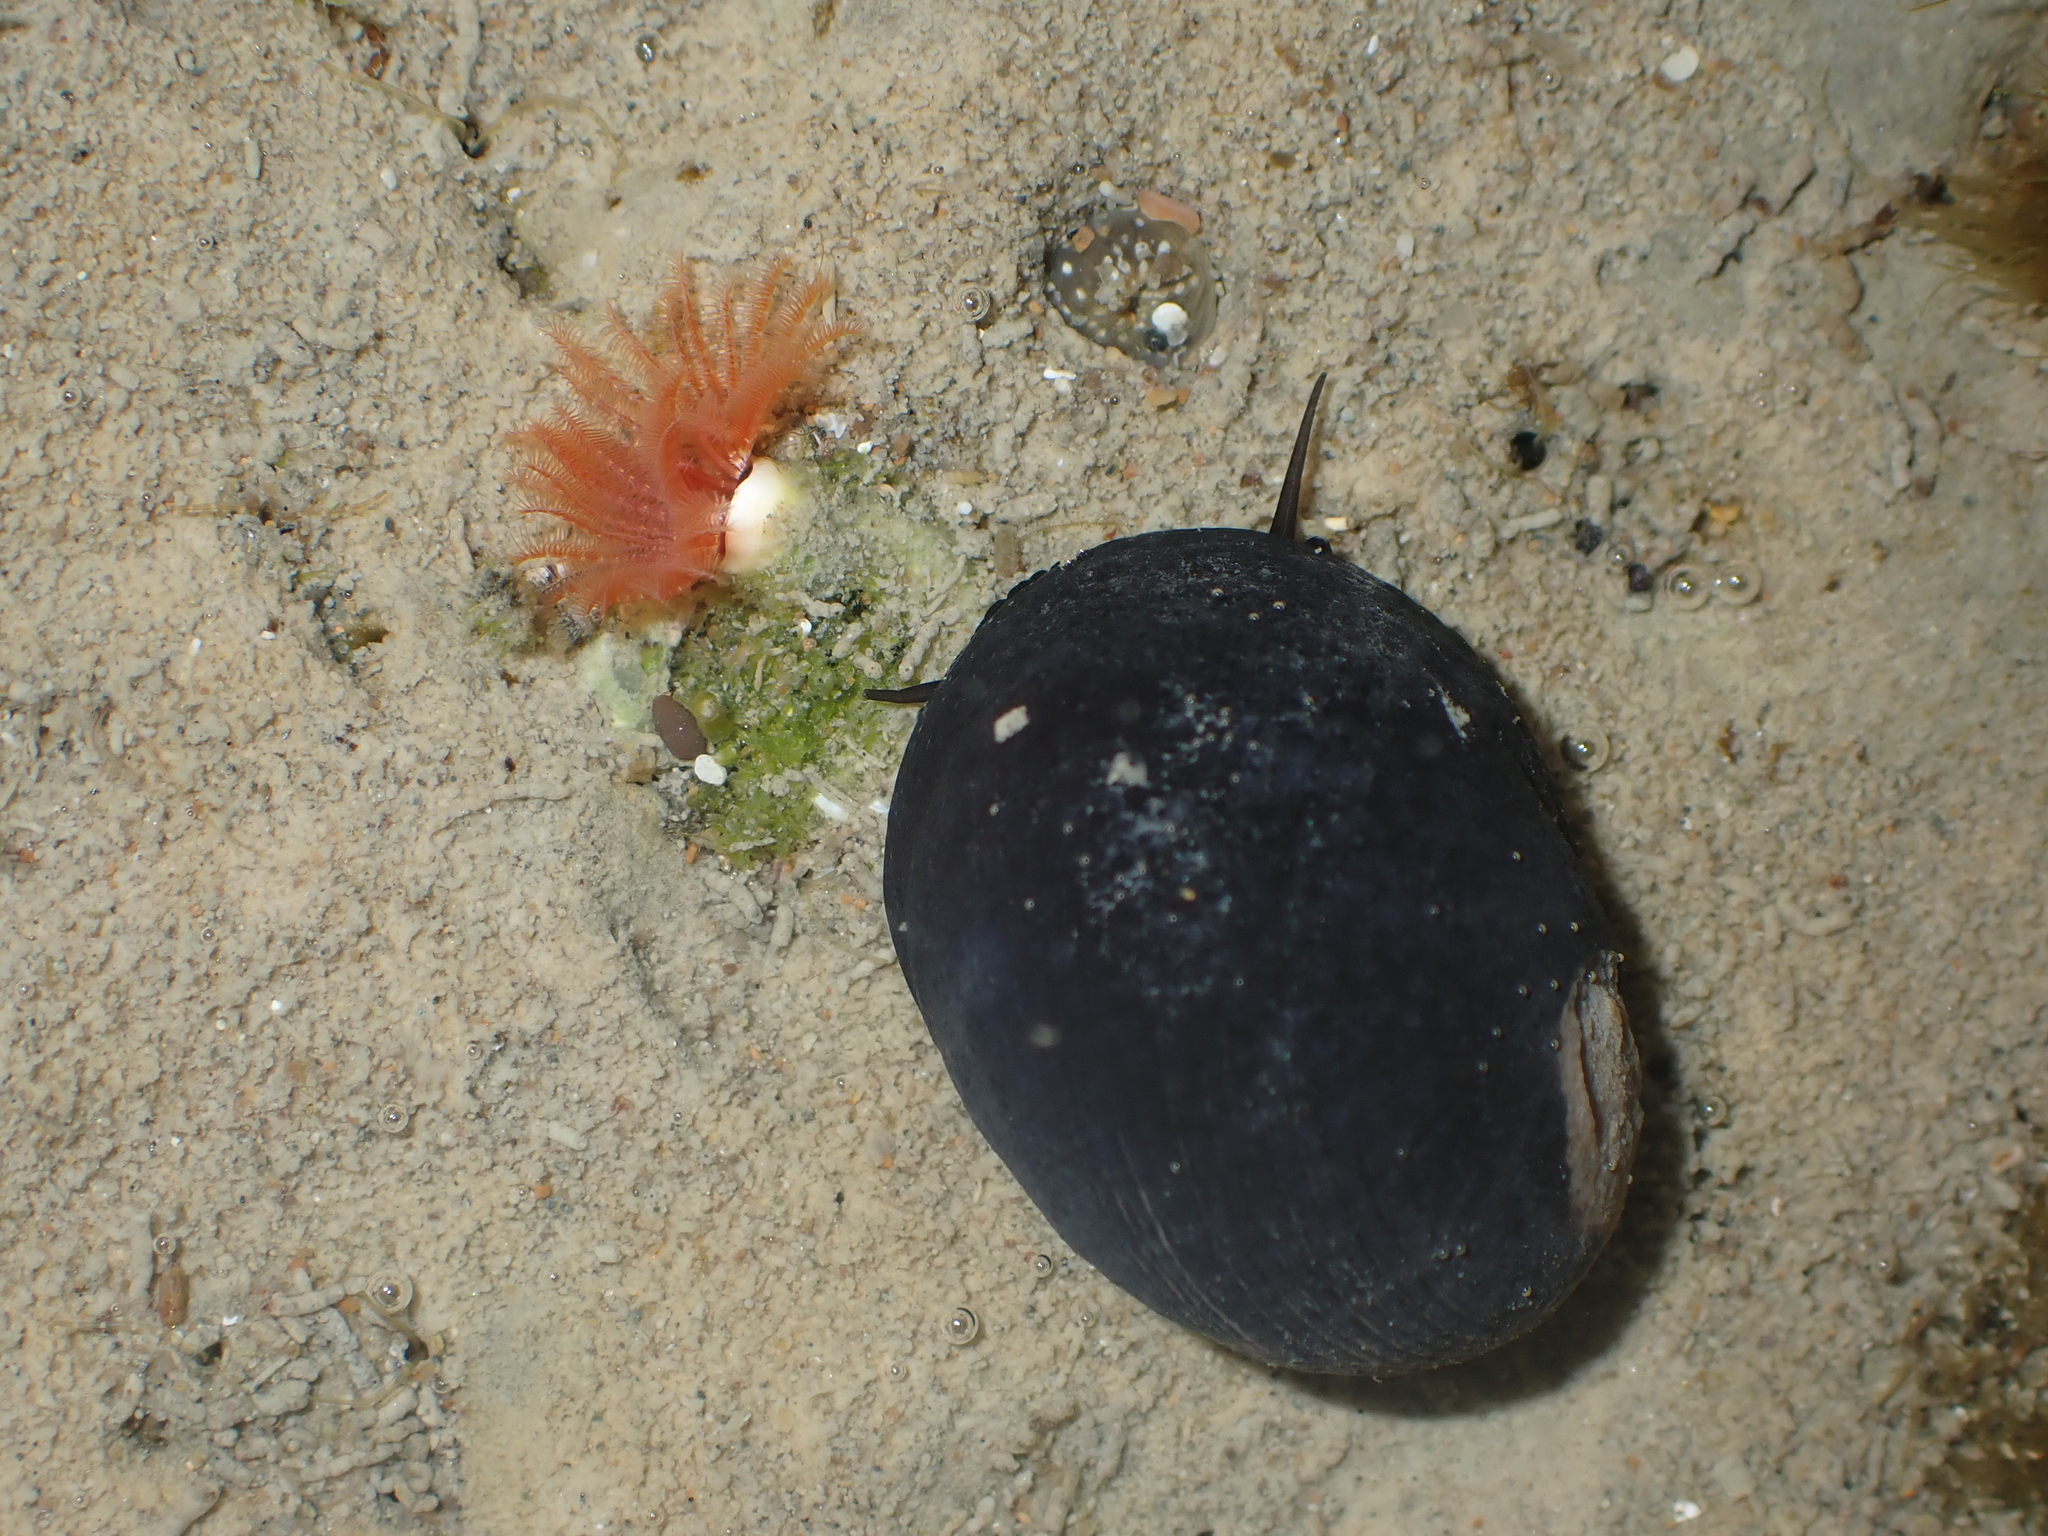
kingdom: Animalia
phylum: Mollusca
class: Gastropoda
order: Cycloneritida
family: Neritidae
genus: Nerita
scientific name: Nerita melanotragus
